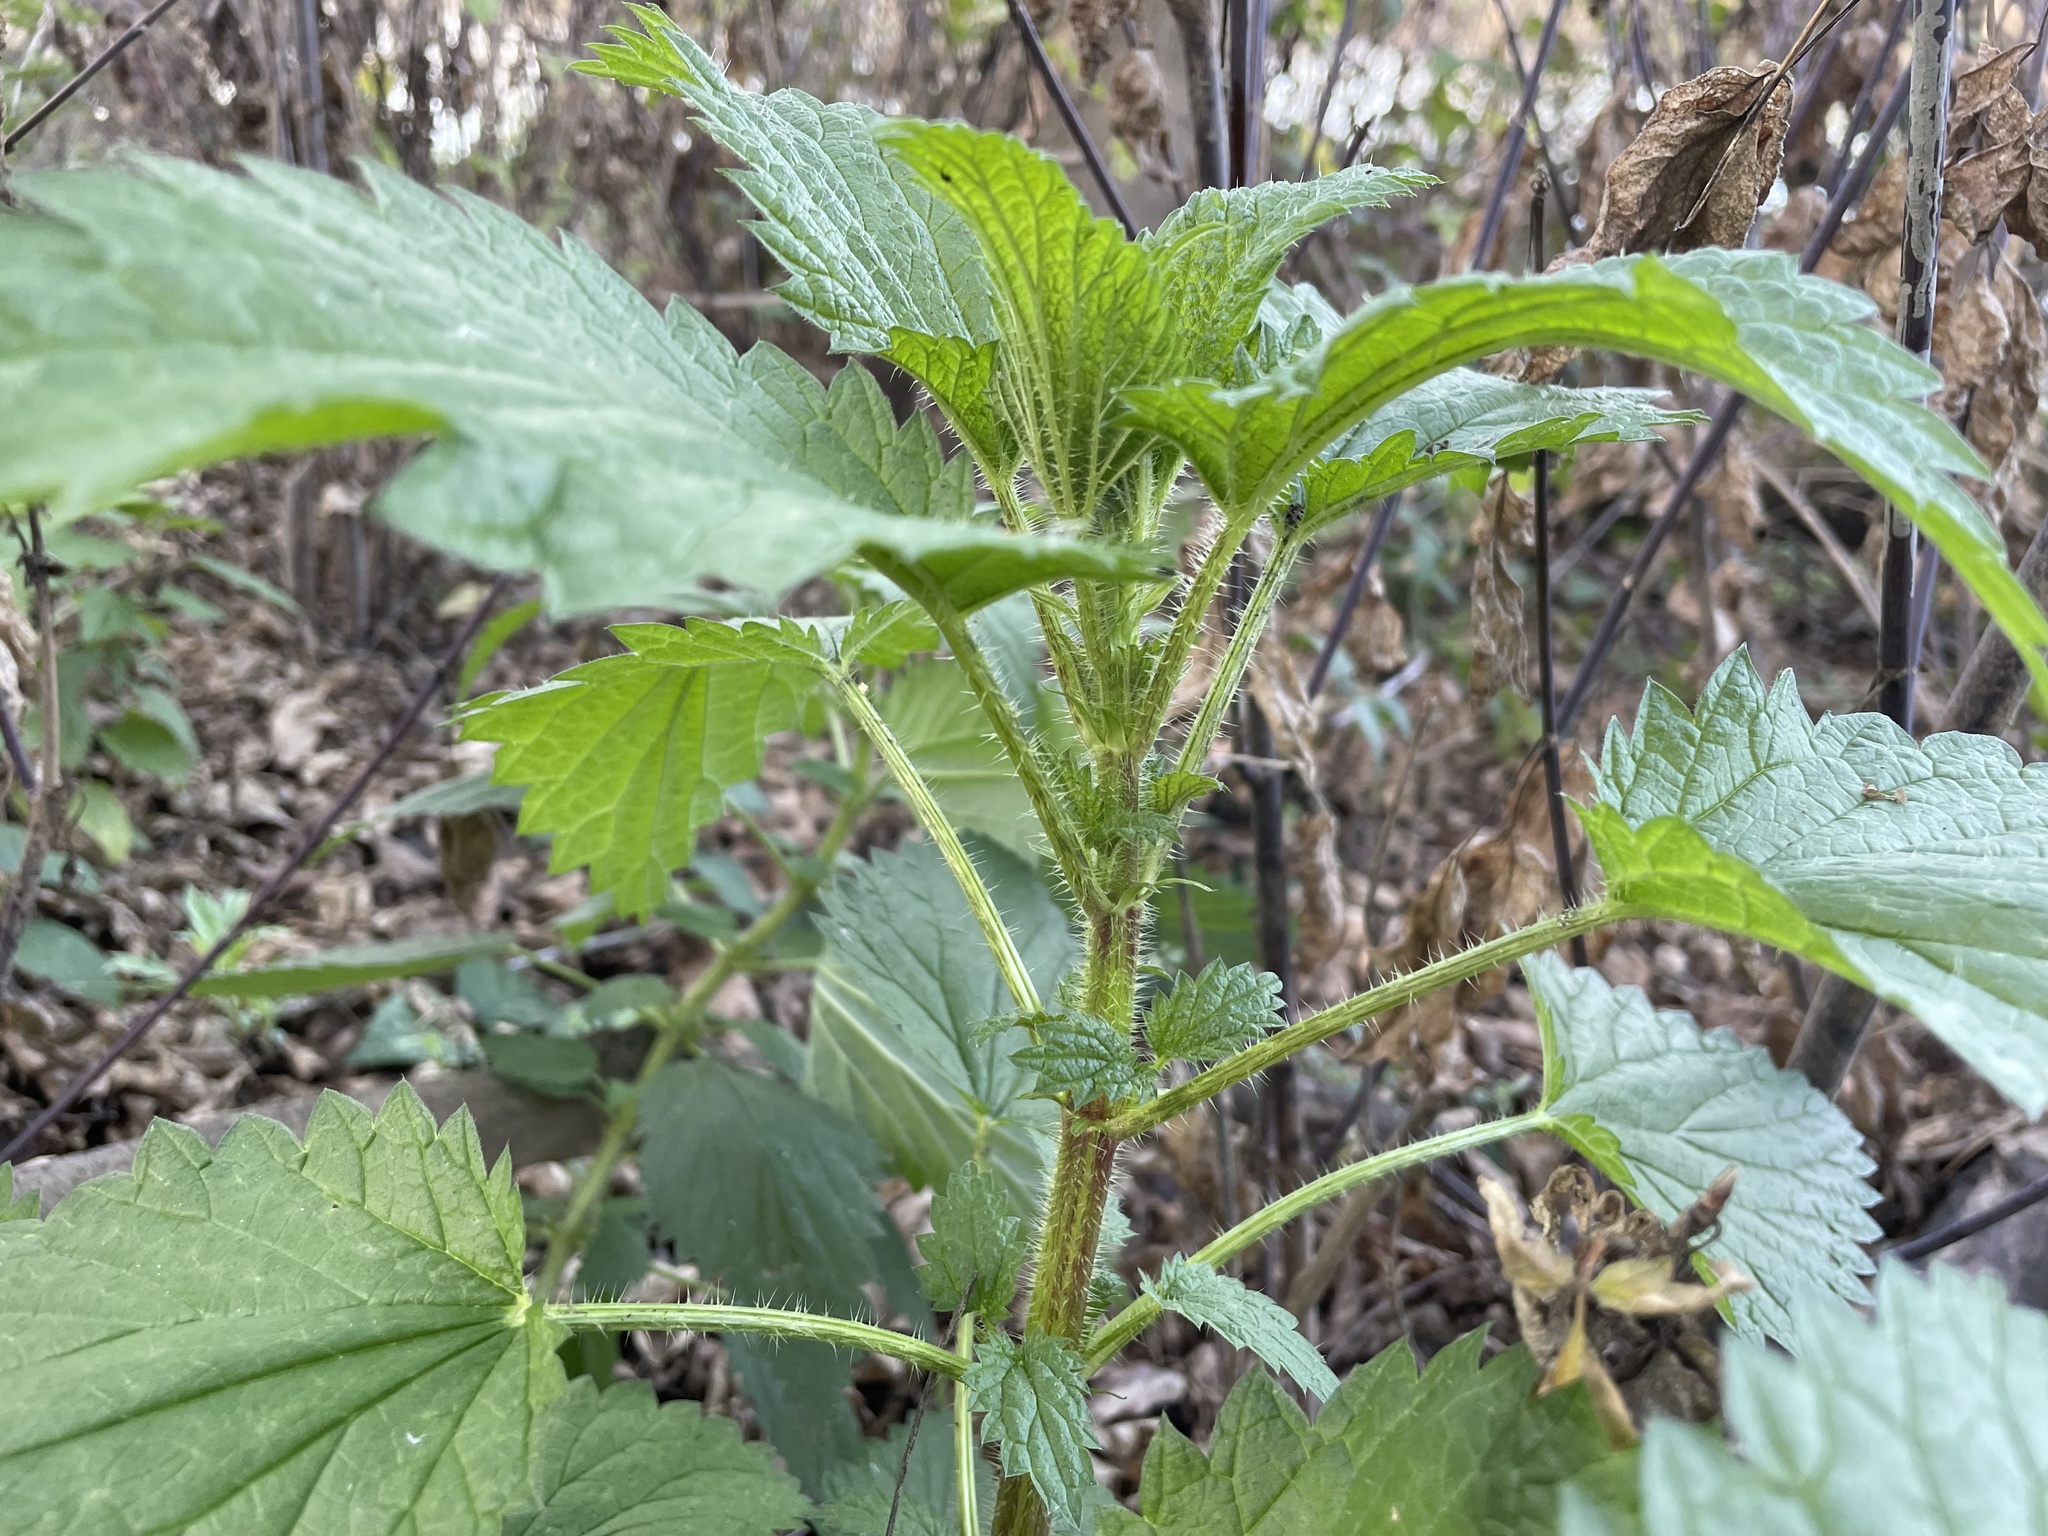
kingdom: Plantae
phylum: Tracheophyta
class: Magnoliopsida
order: Rosales
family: Urticaceae
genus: Urtica
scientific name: Urtica dioica
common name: Common nettle
